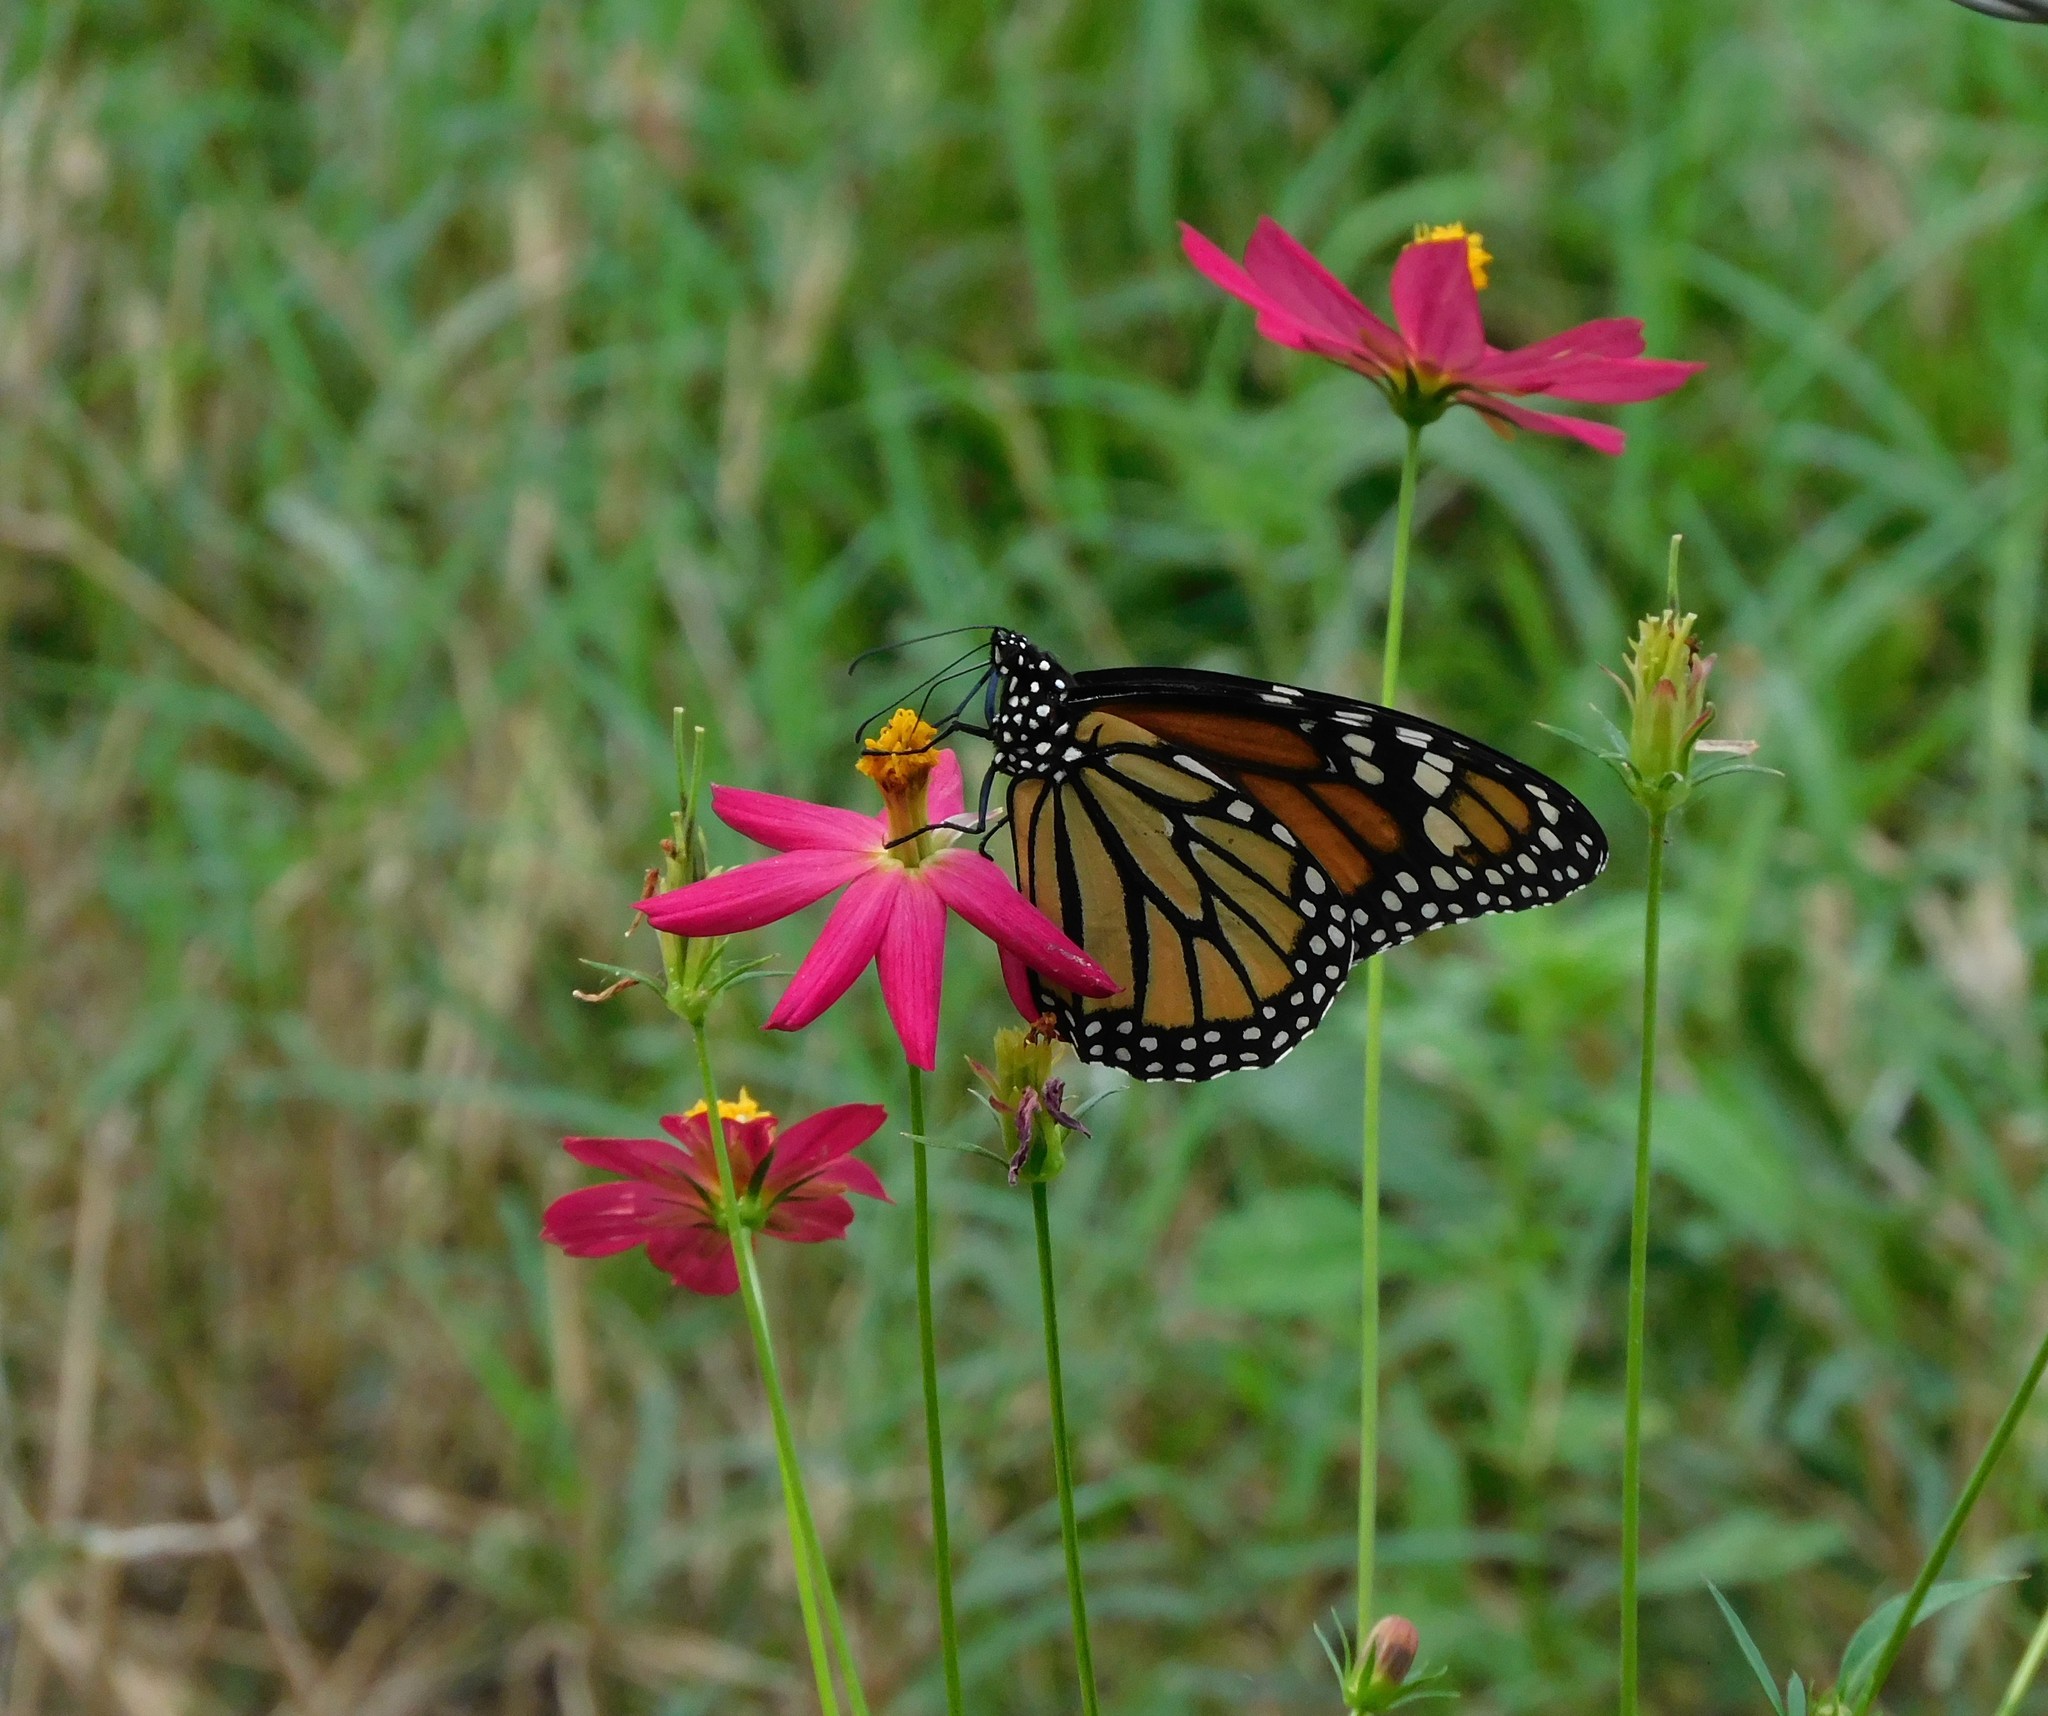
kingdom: Animalia
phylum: Arthropoda
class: Insecta
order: Lepidoptera
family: Nymphalidae
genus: Danaus
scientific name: Danaus plexippus
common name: Monarch
